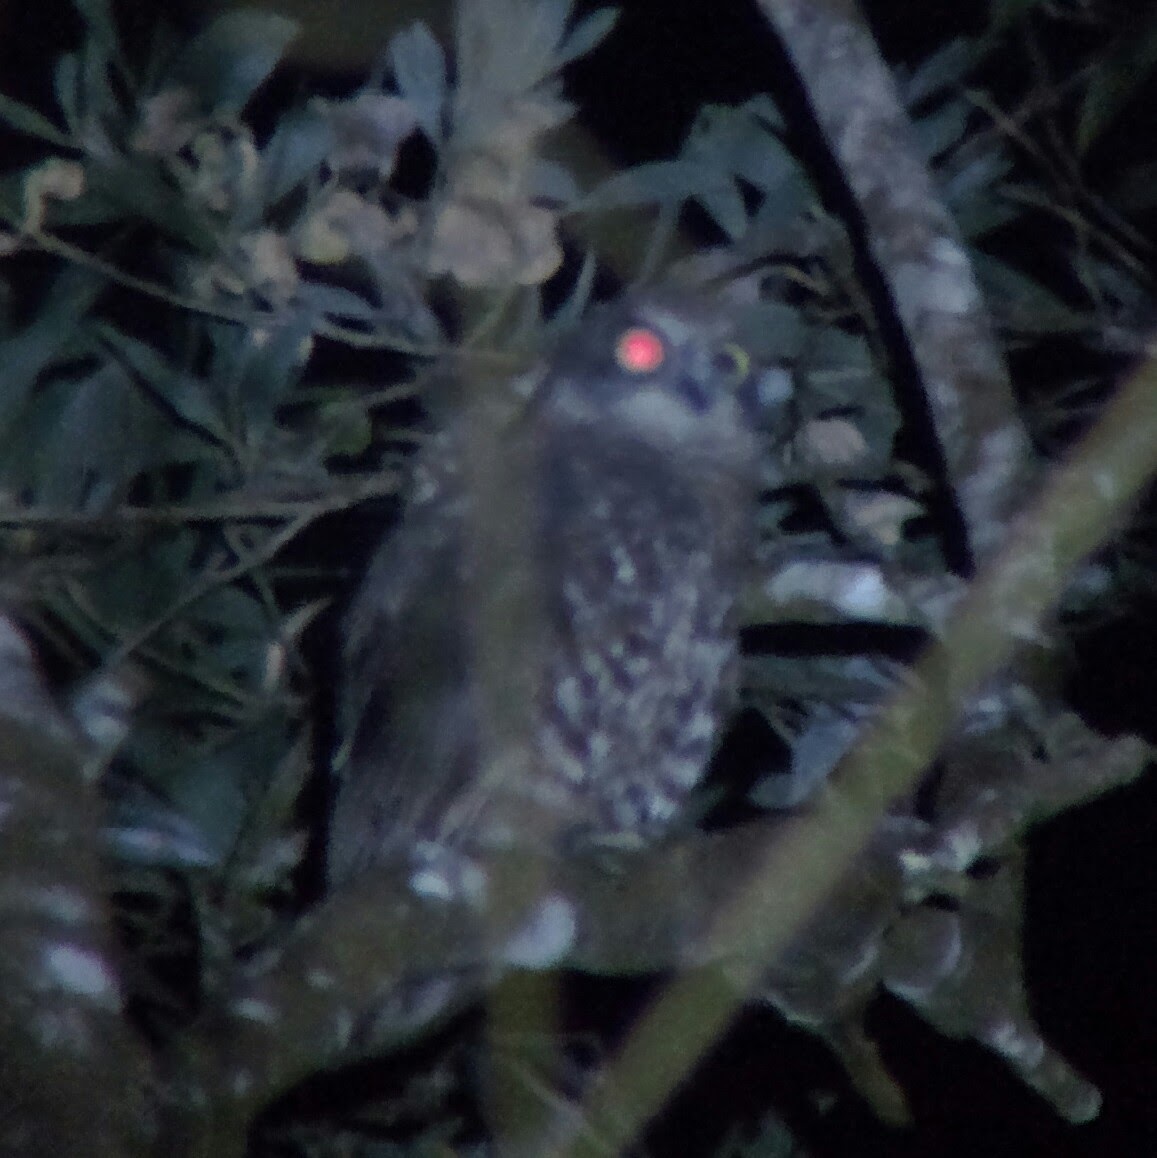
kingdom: Animalia
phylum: Chordata
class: Aves
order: Strigiformes
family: Strigidae
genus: Ninox
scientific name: Ninox boobook
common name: Southern boobook
